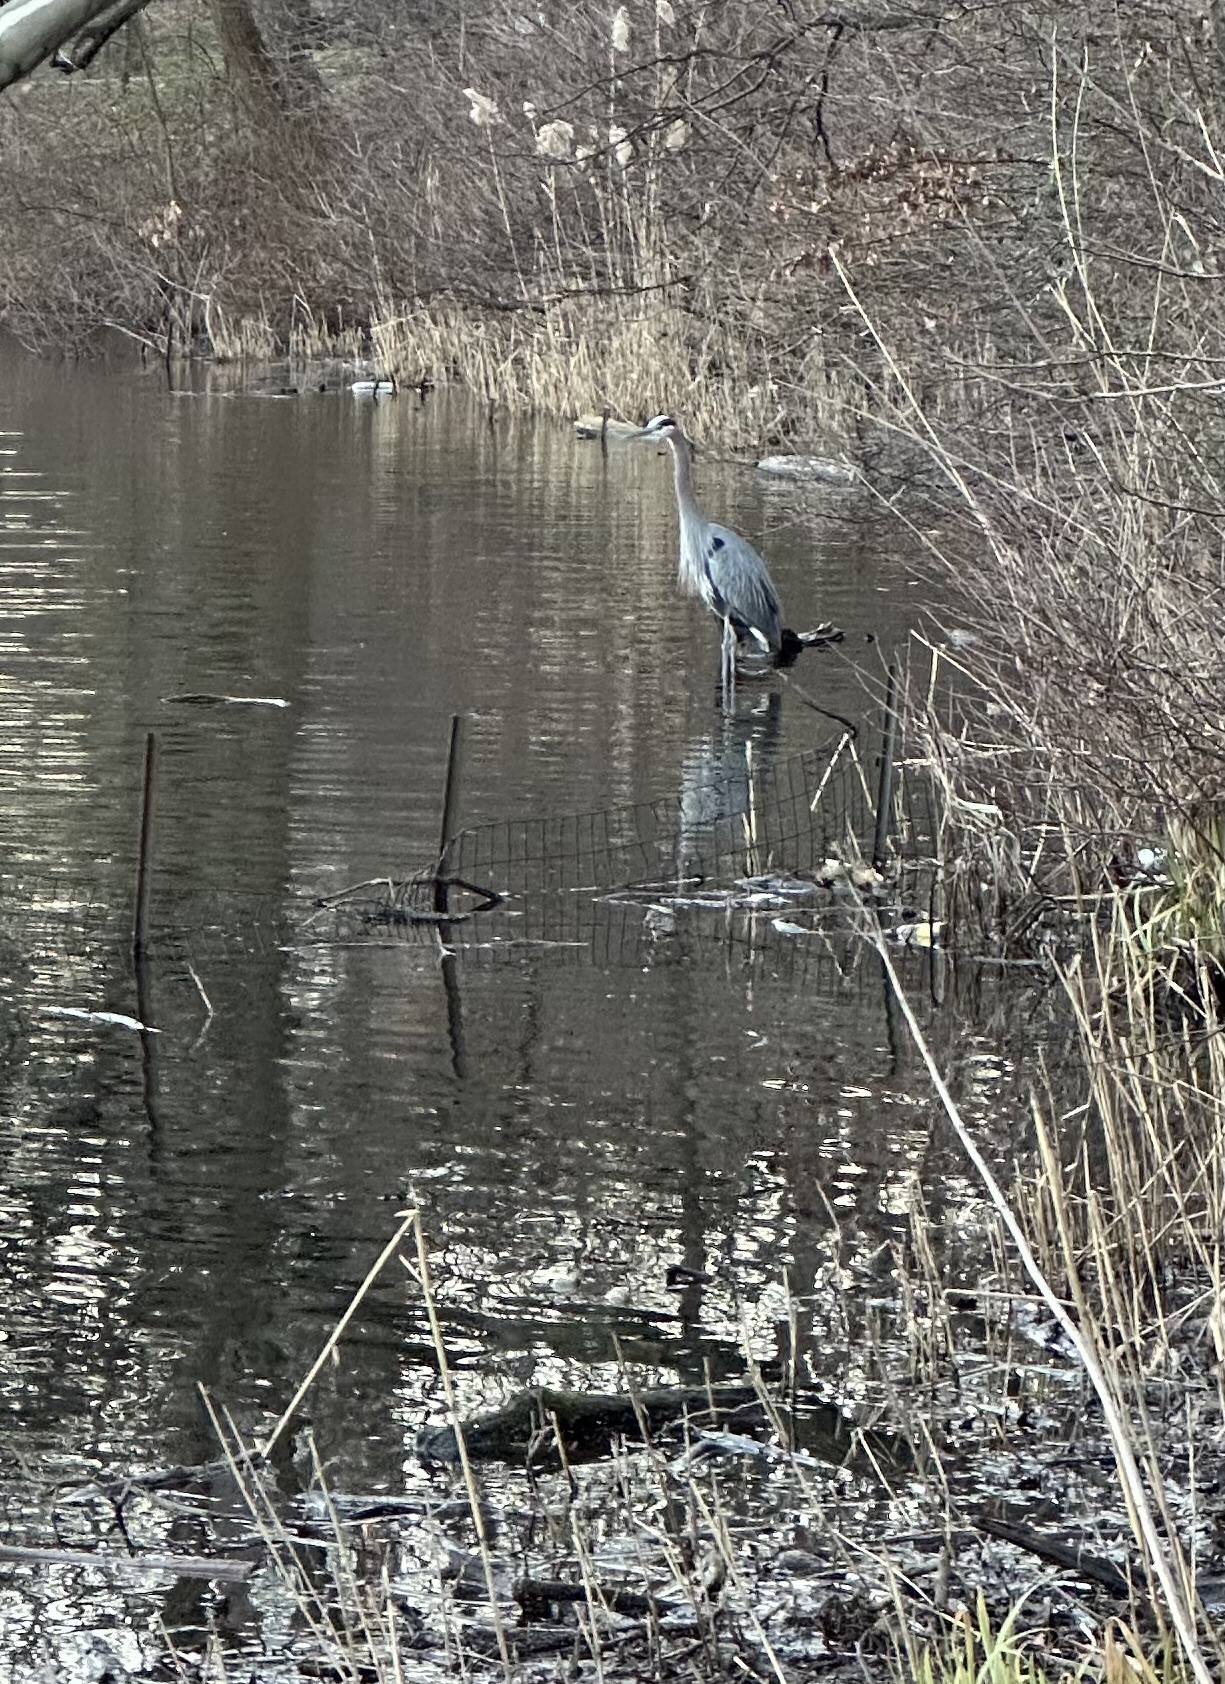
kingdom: Animalia
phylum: Chordata
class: Aves
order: Pelecaniformes
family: Ardeidae
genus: Ardea
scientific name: Ardea herodias
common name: Great blue heron
